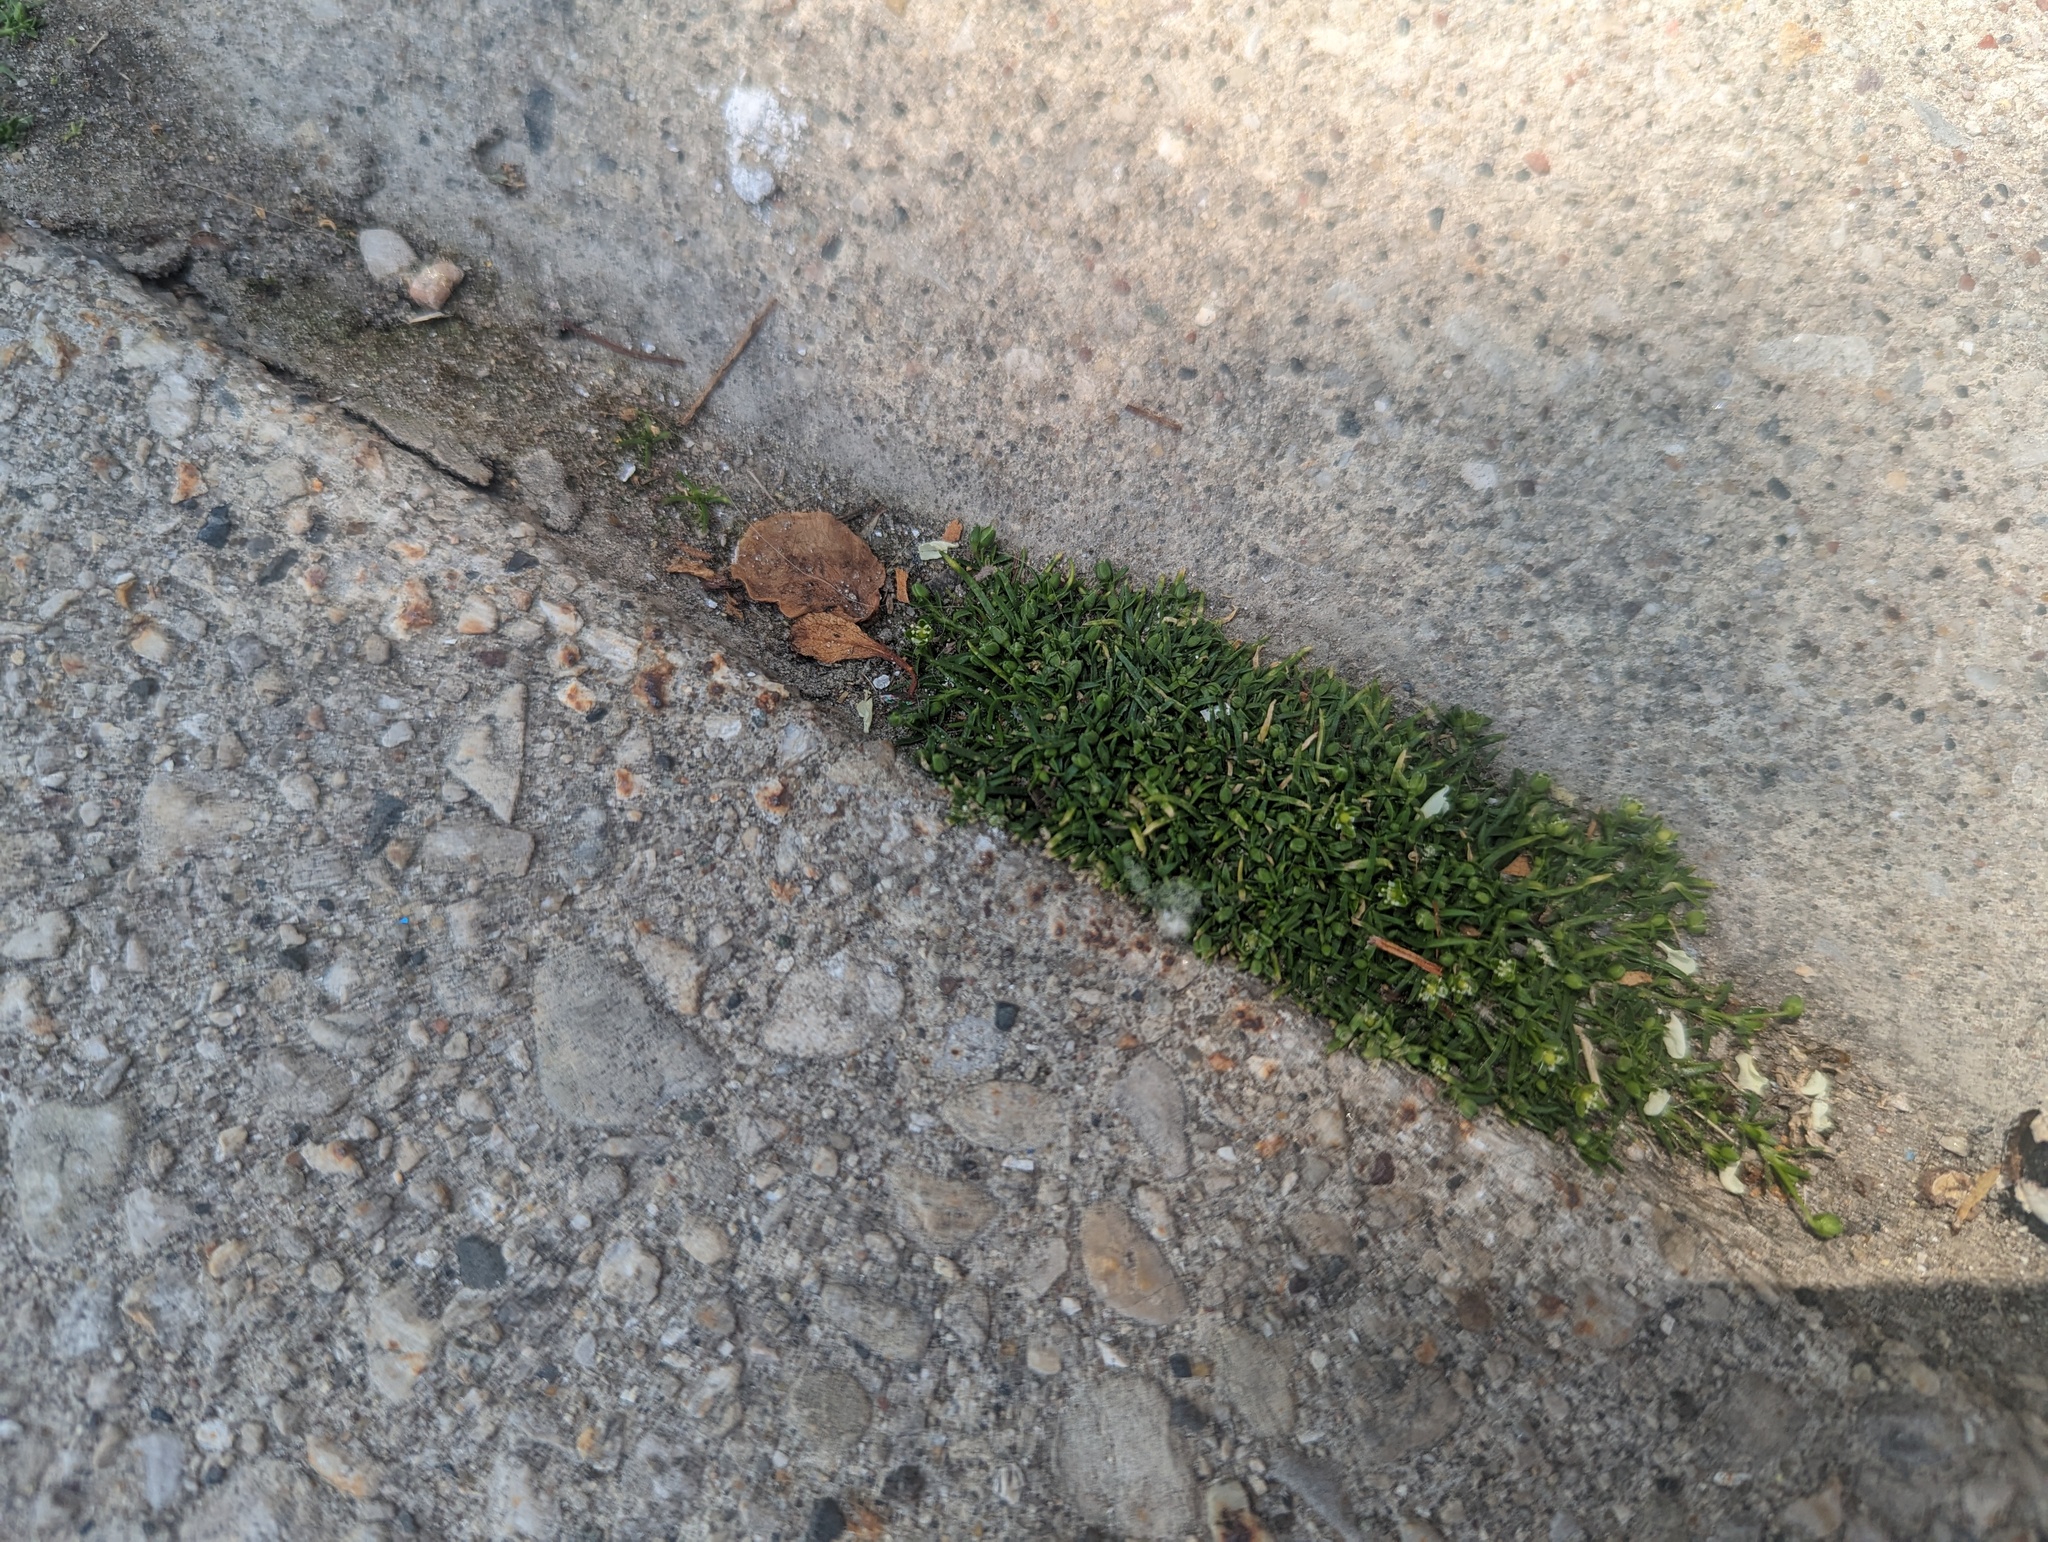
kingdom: Plantae
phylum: Tracheophyta
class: Magnoliopsida
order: Caryophyllales
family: Caryophyllaceae
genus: Sagina
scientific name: Sagina procumbens
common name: Procumbent pearlwort
